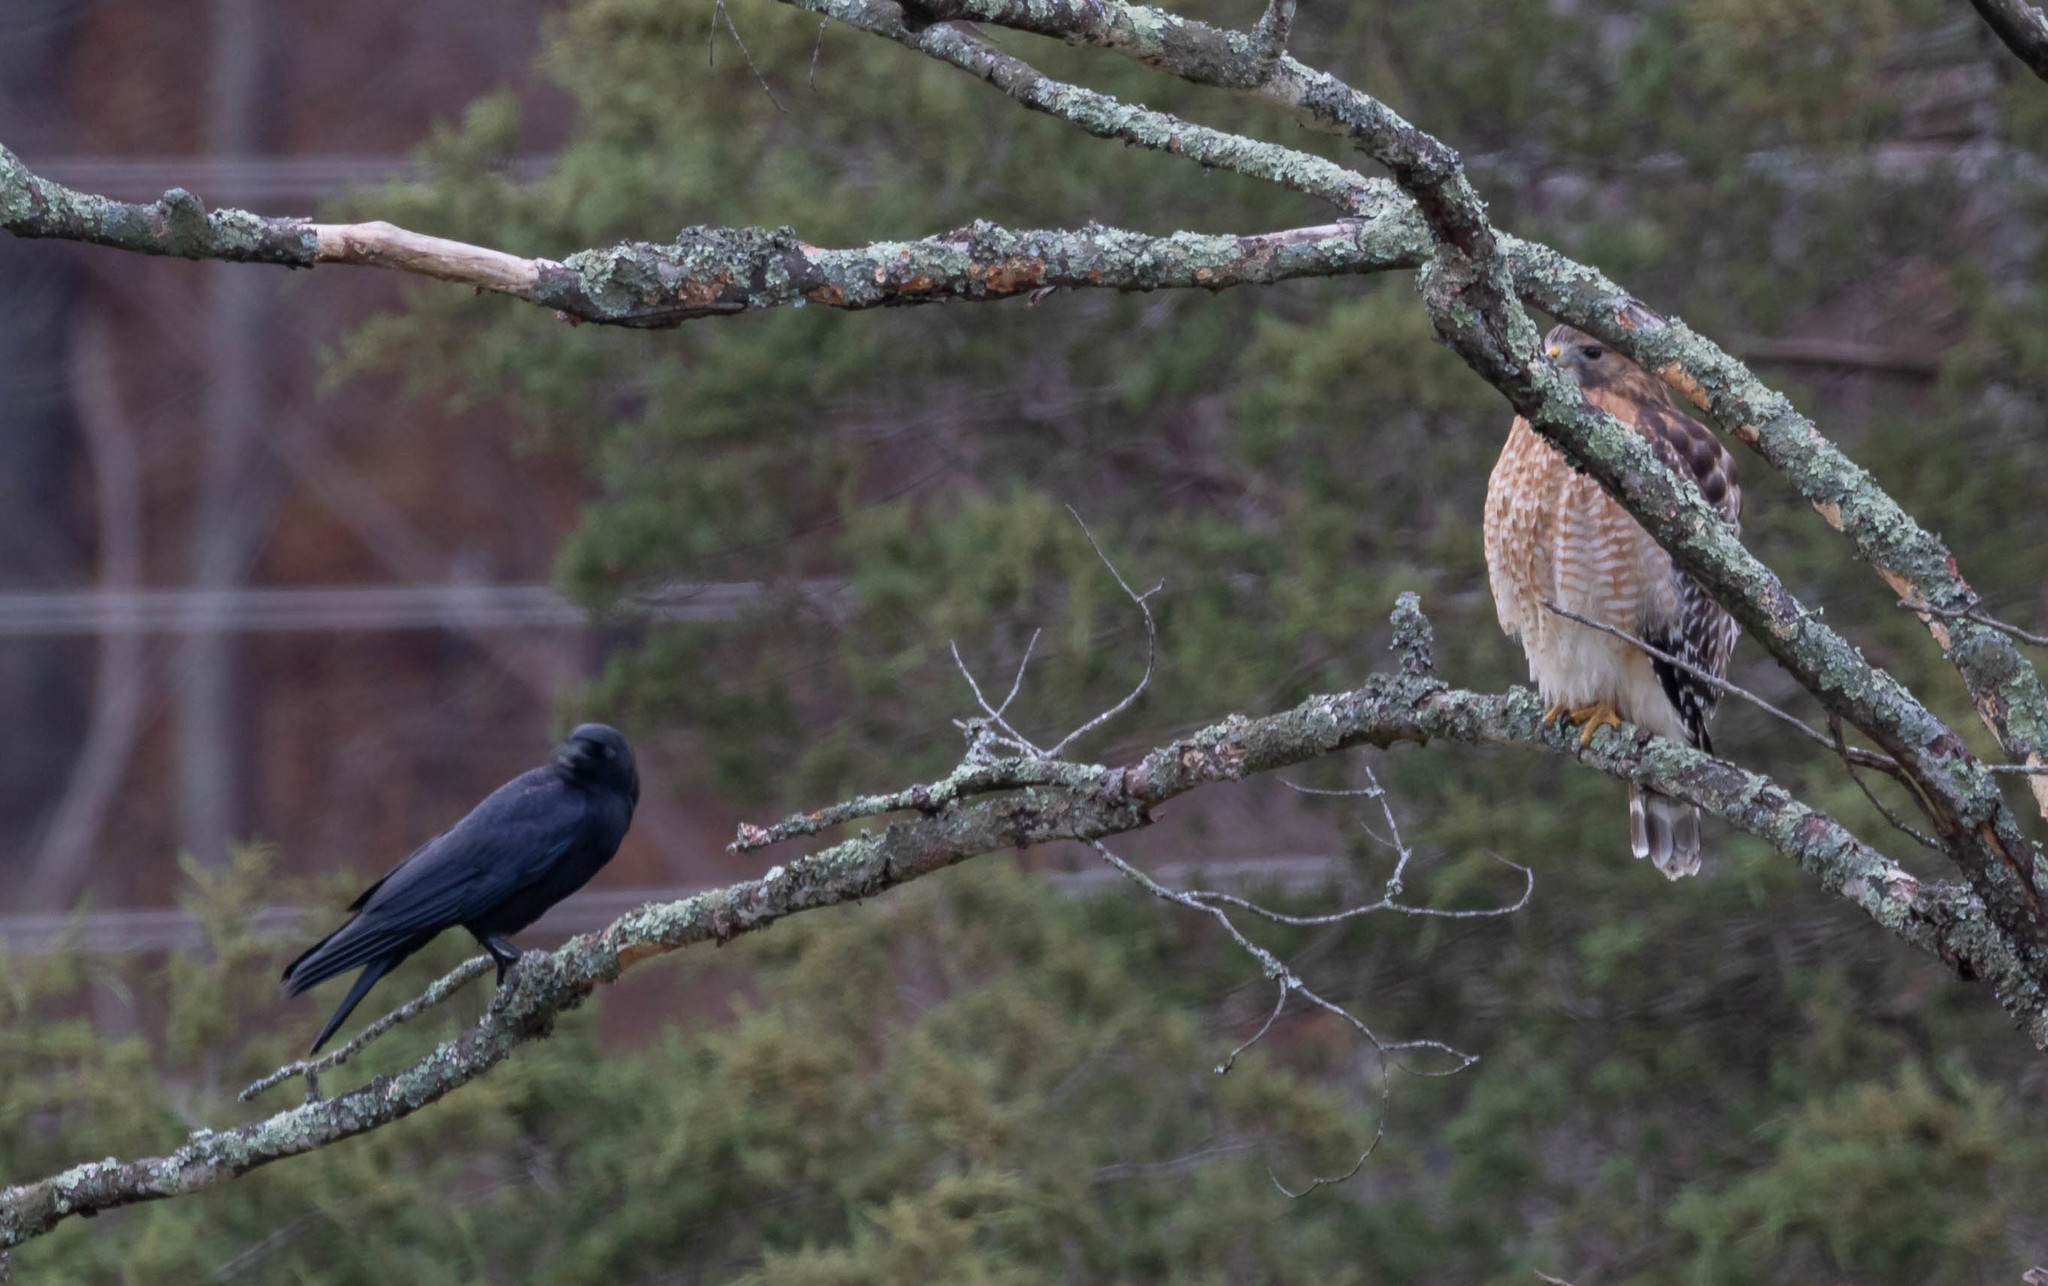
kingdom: Animalia
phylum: Chordata
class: Aves
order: Accipitriformes
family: Accipitridae
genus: Buteo
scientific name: Buteo lineatus
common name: Red-shouldered hawk
